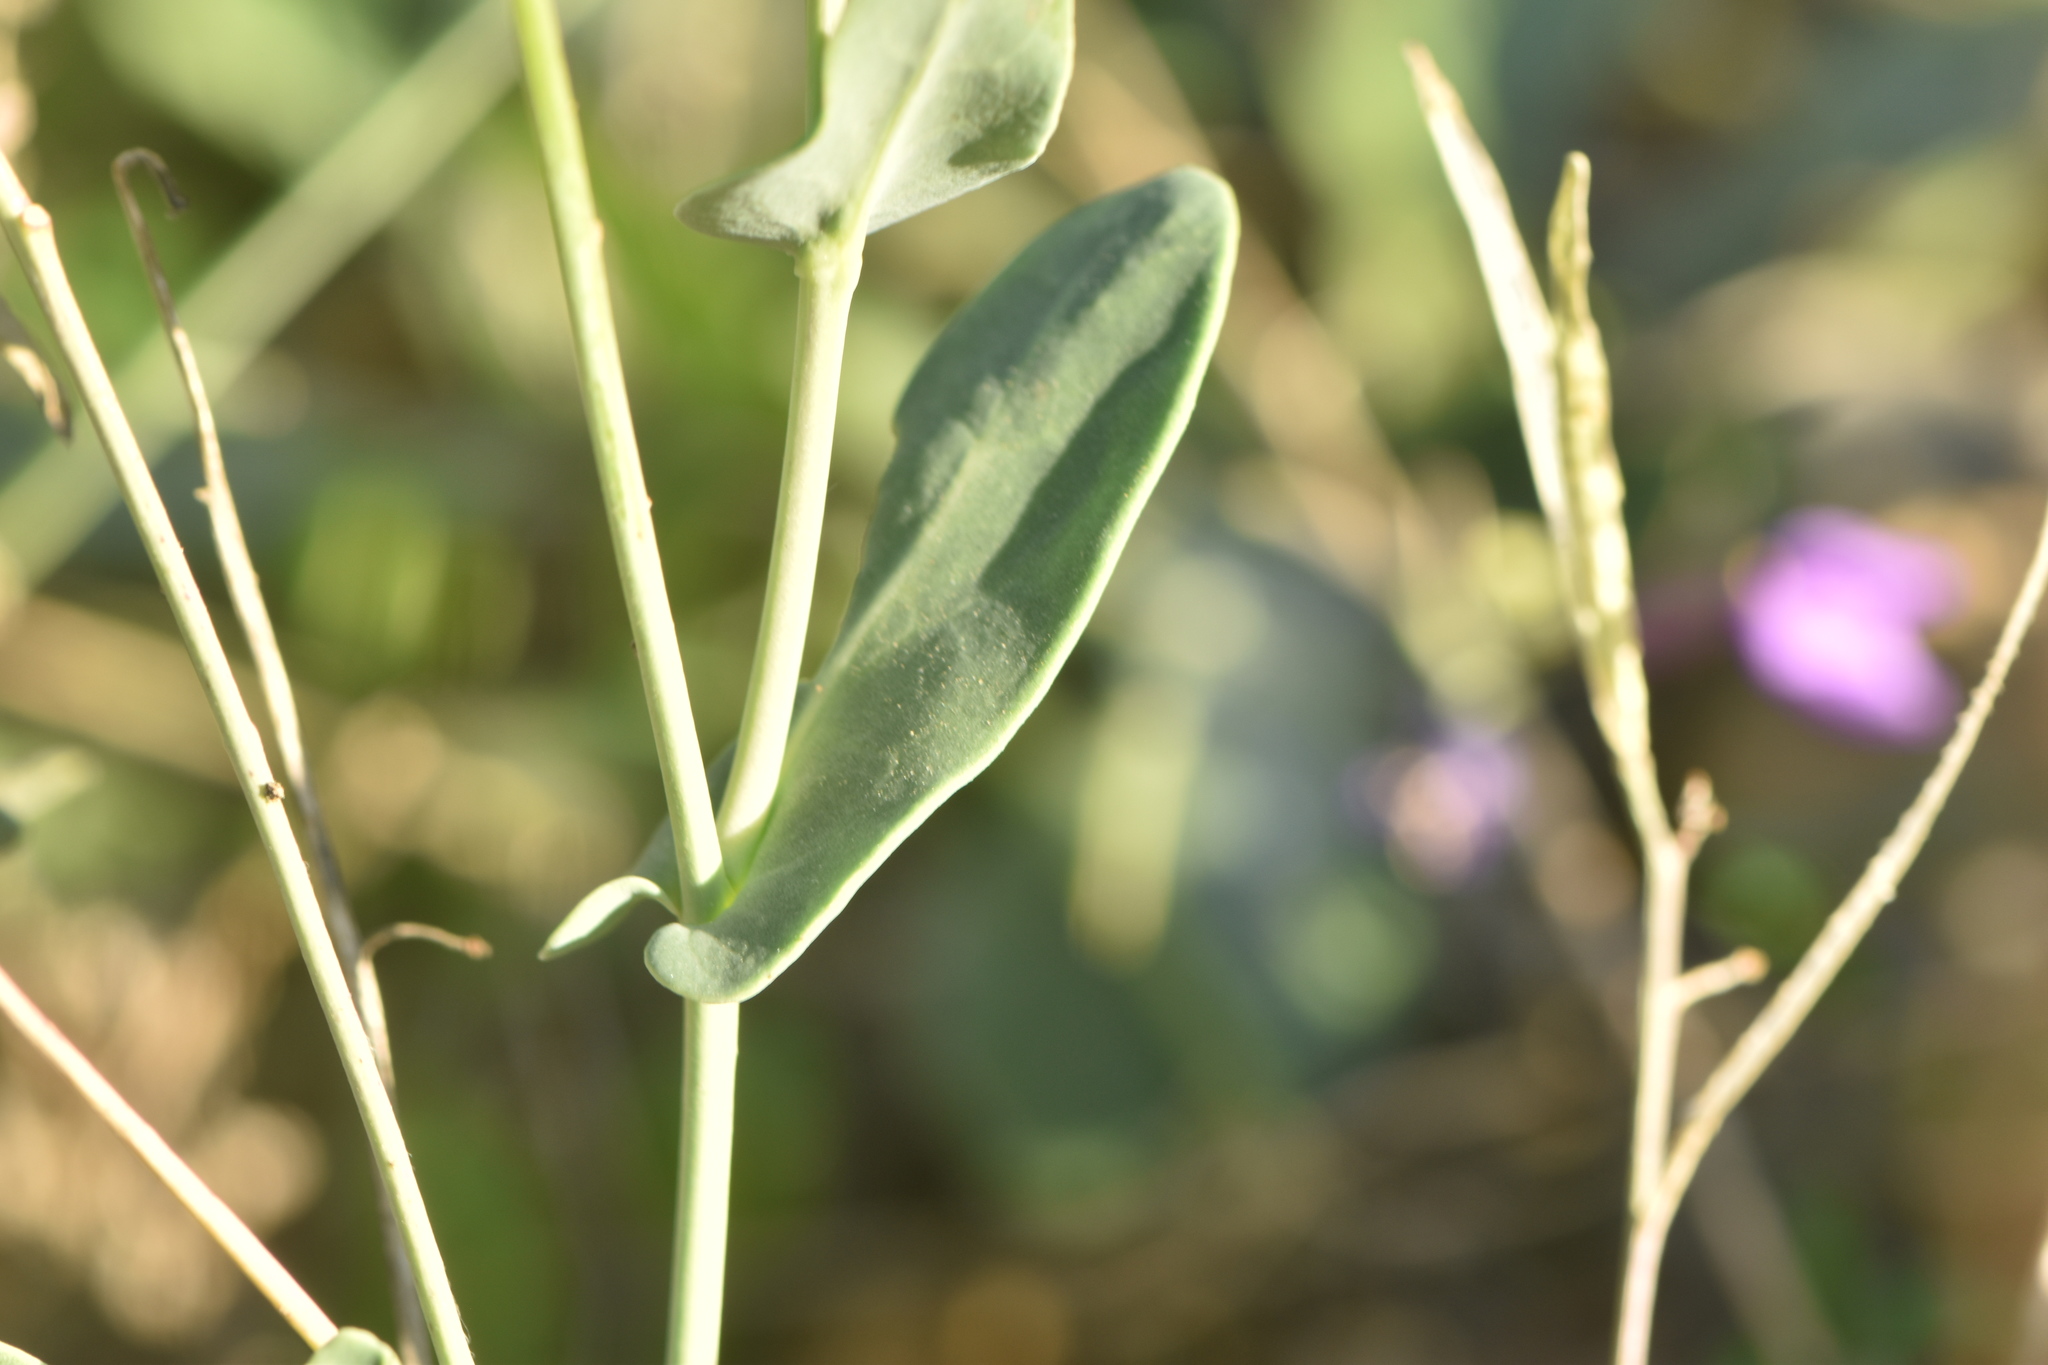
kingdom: Plantae
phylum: Tracheophyta
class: Magnoliopsida
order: Brassicales
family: Brassicaceae
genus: Moricandia
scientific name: Moricandia arvensis
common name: Purple mistress
